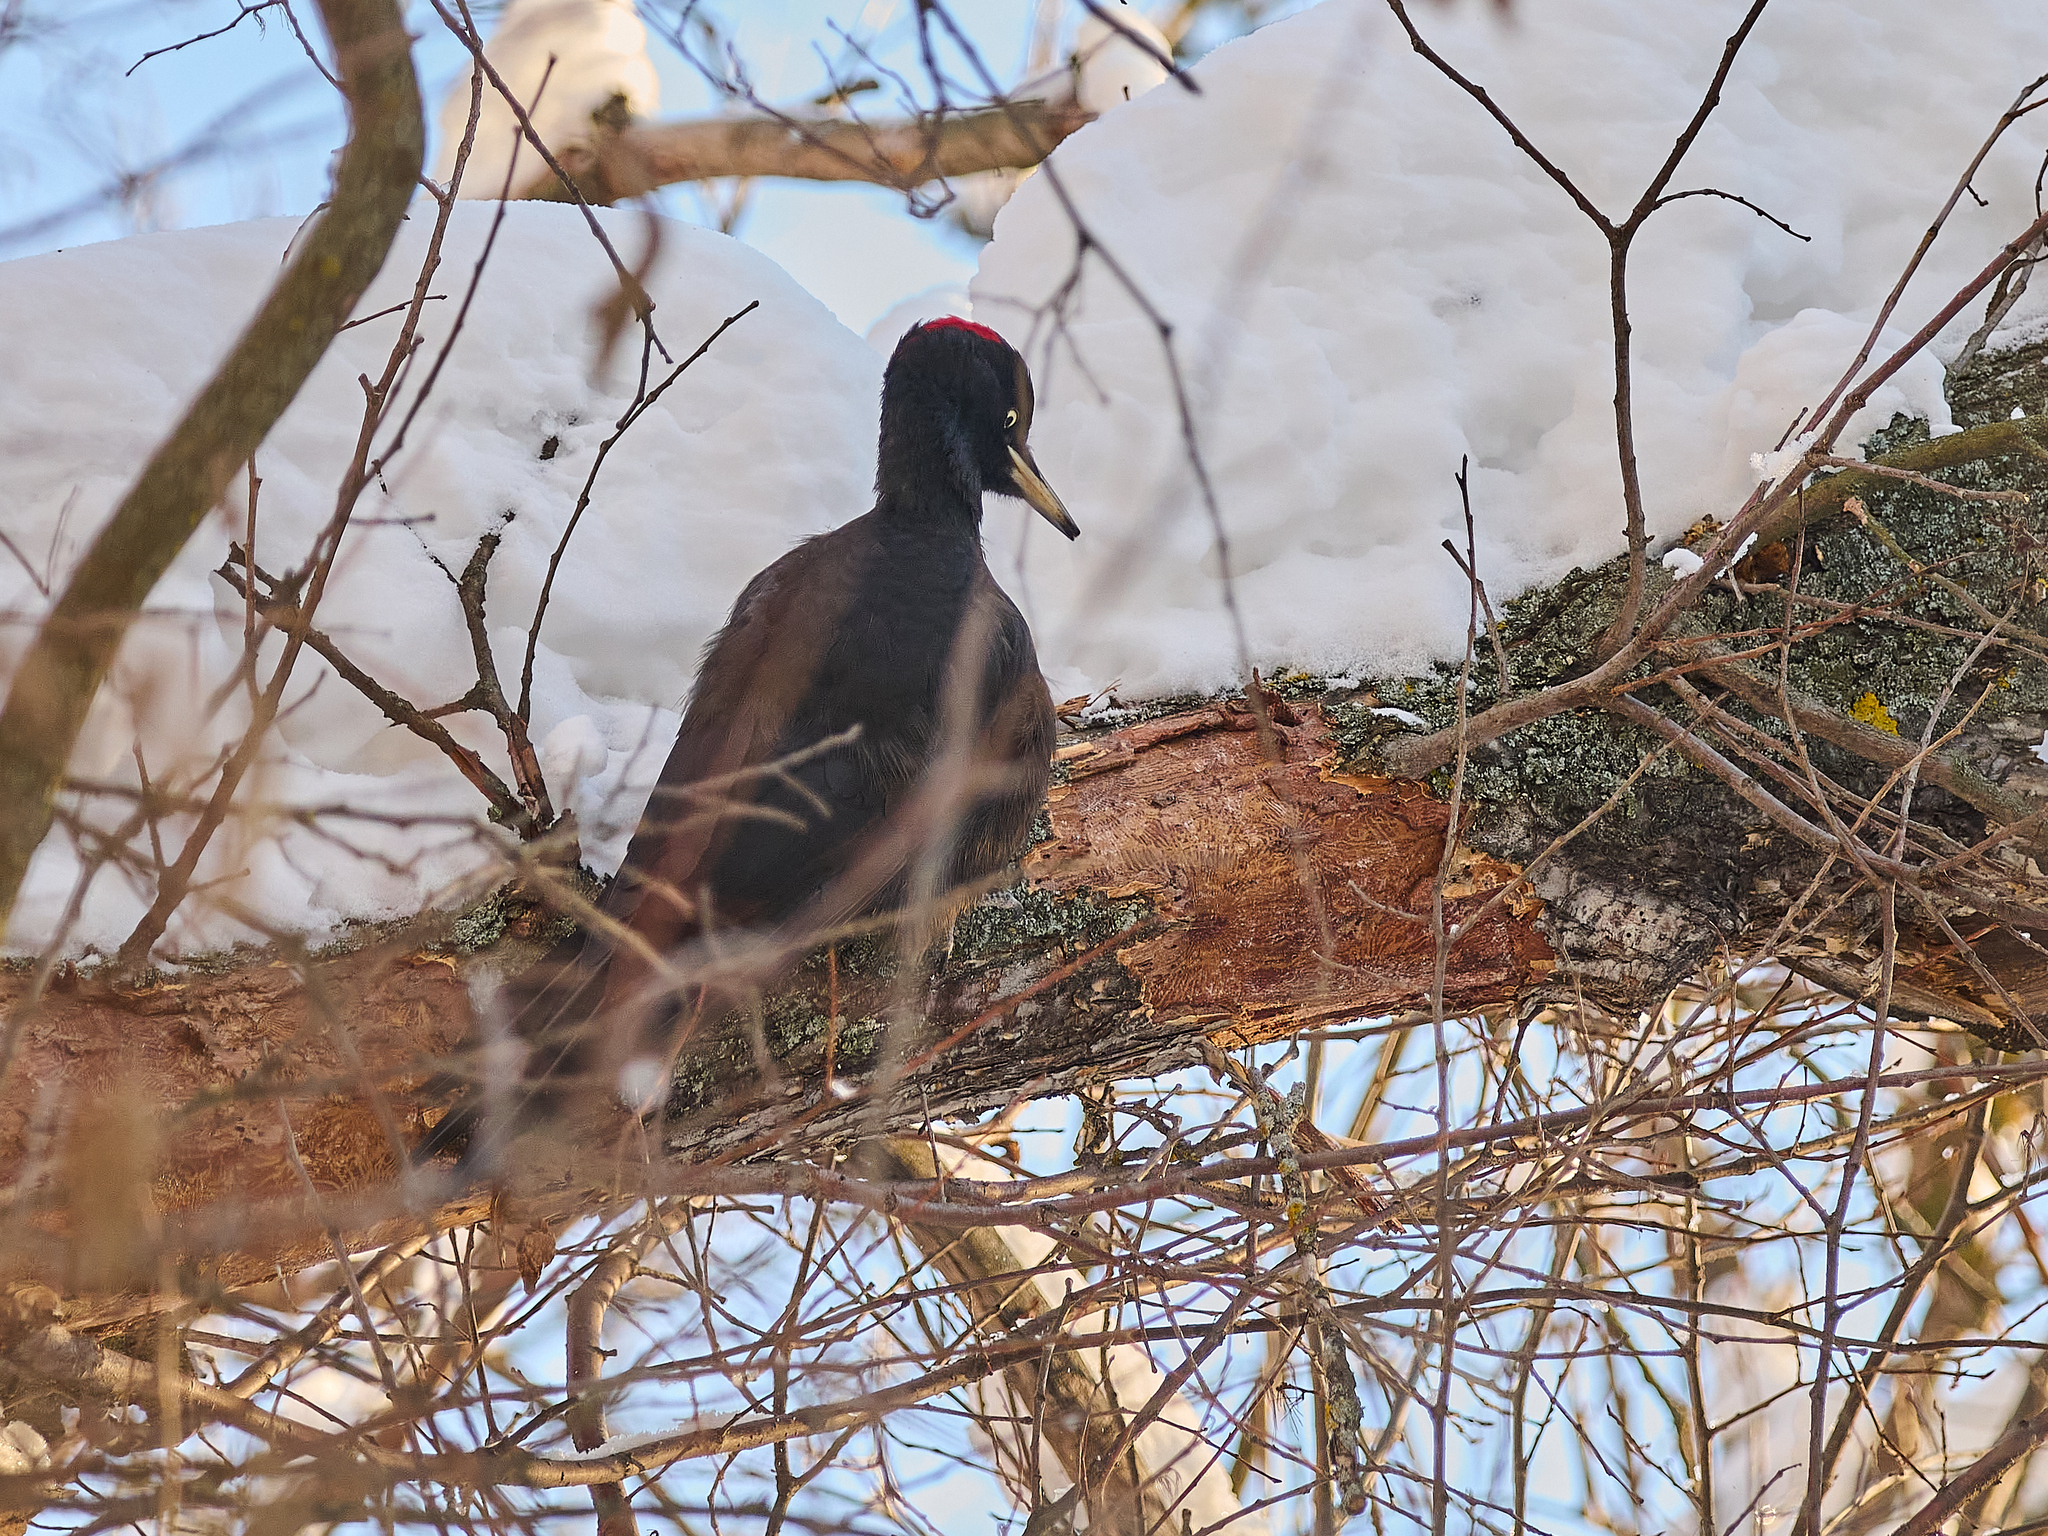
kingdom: Animalia
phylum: Chordata
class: Aves
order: Piciformes
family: Picidae
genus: Dryocopus
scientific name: Dryocopus martius
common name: Black woodpecker
